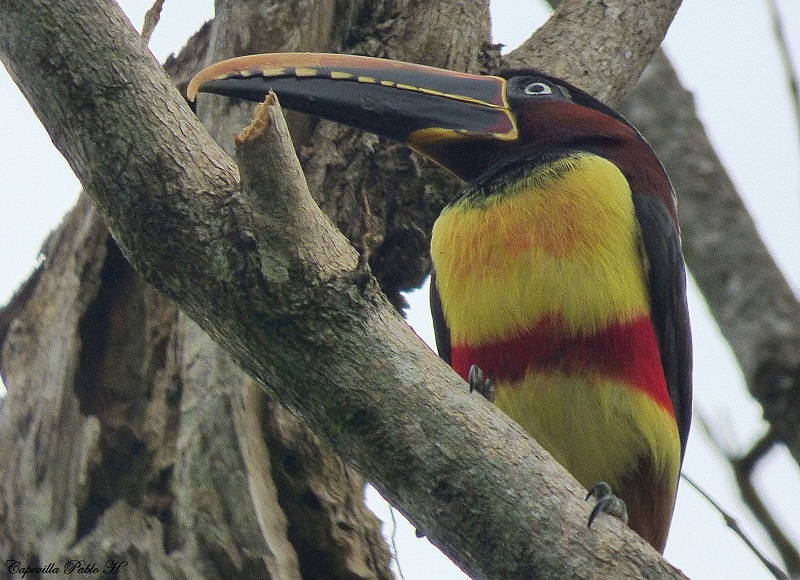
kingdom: Animalia
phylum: Chordata
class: Aves
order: Piciformes
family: Ramphastidae
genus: Pteroglossus
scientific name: Pteroglossus castanotis
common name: Chestnut-eared aracari
